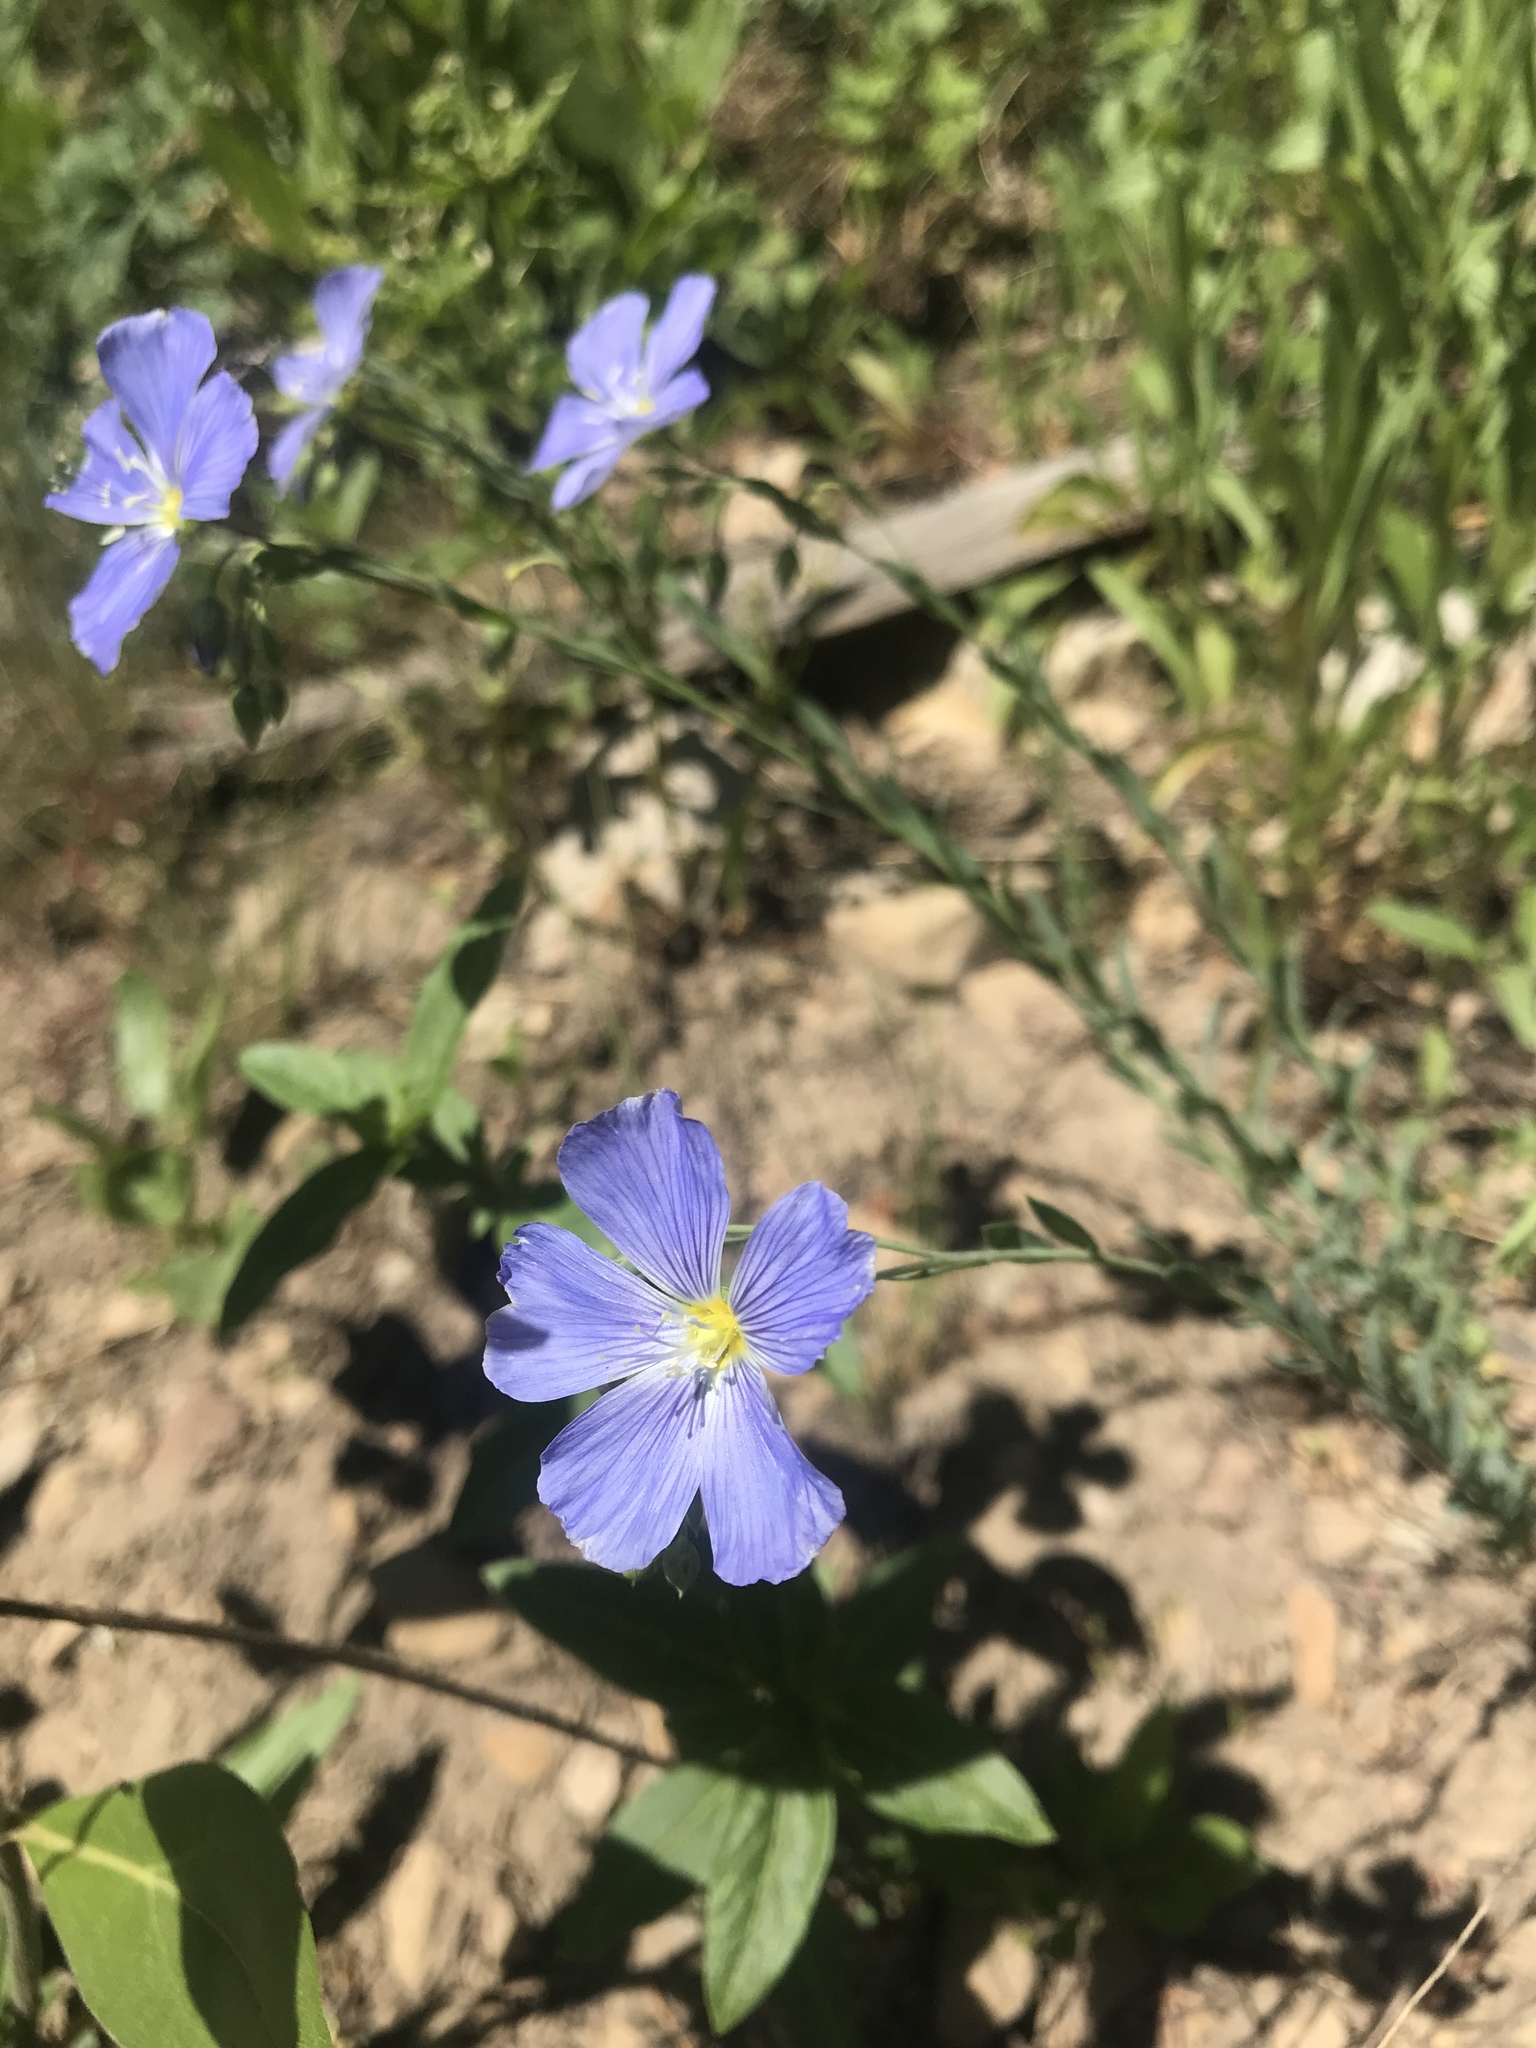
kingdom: Plantae
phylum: Tracheophyta
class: Magnoliopsida
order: Malpighiales
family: Linaceae
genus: Linum
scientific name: Linum lewisii
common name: Prairie flax
